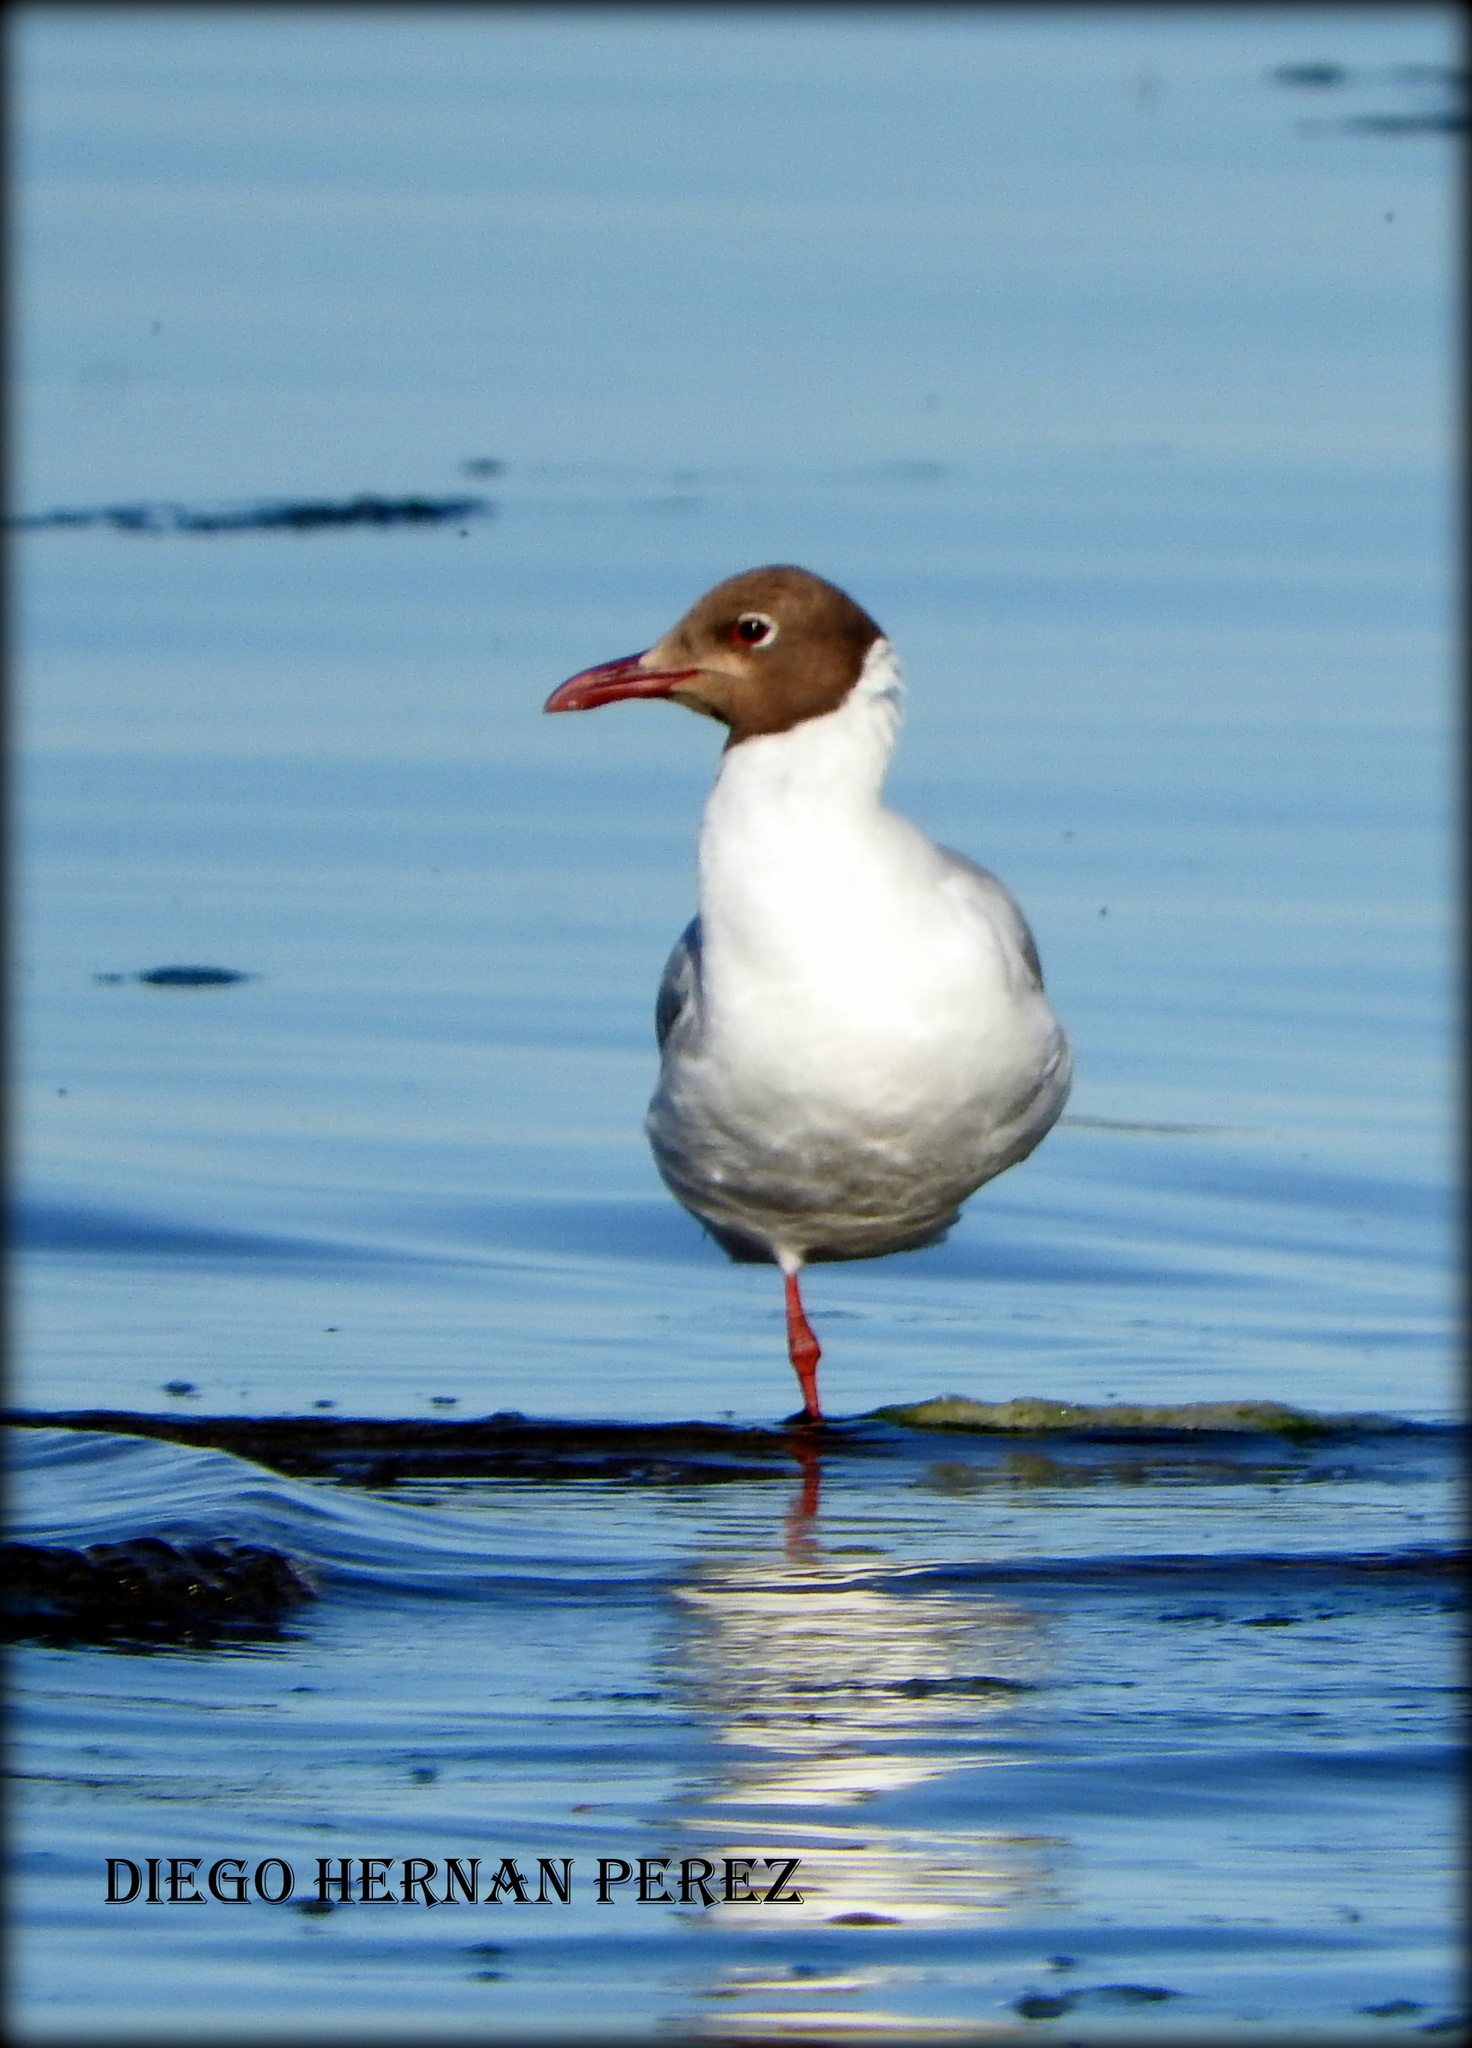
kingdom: Animalia
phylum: Chordata
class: Aves
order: Charadriiformes
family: Laridae
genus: Chroicocephalus
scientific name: Chroicocephalus maculipennis
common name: Brown-hooded gull
